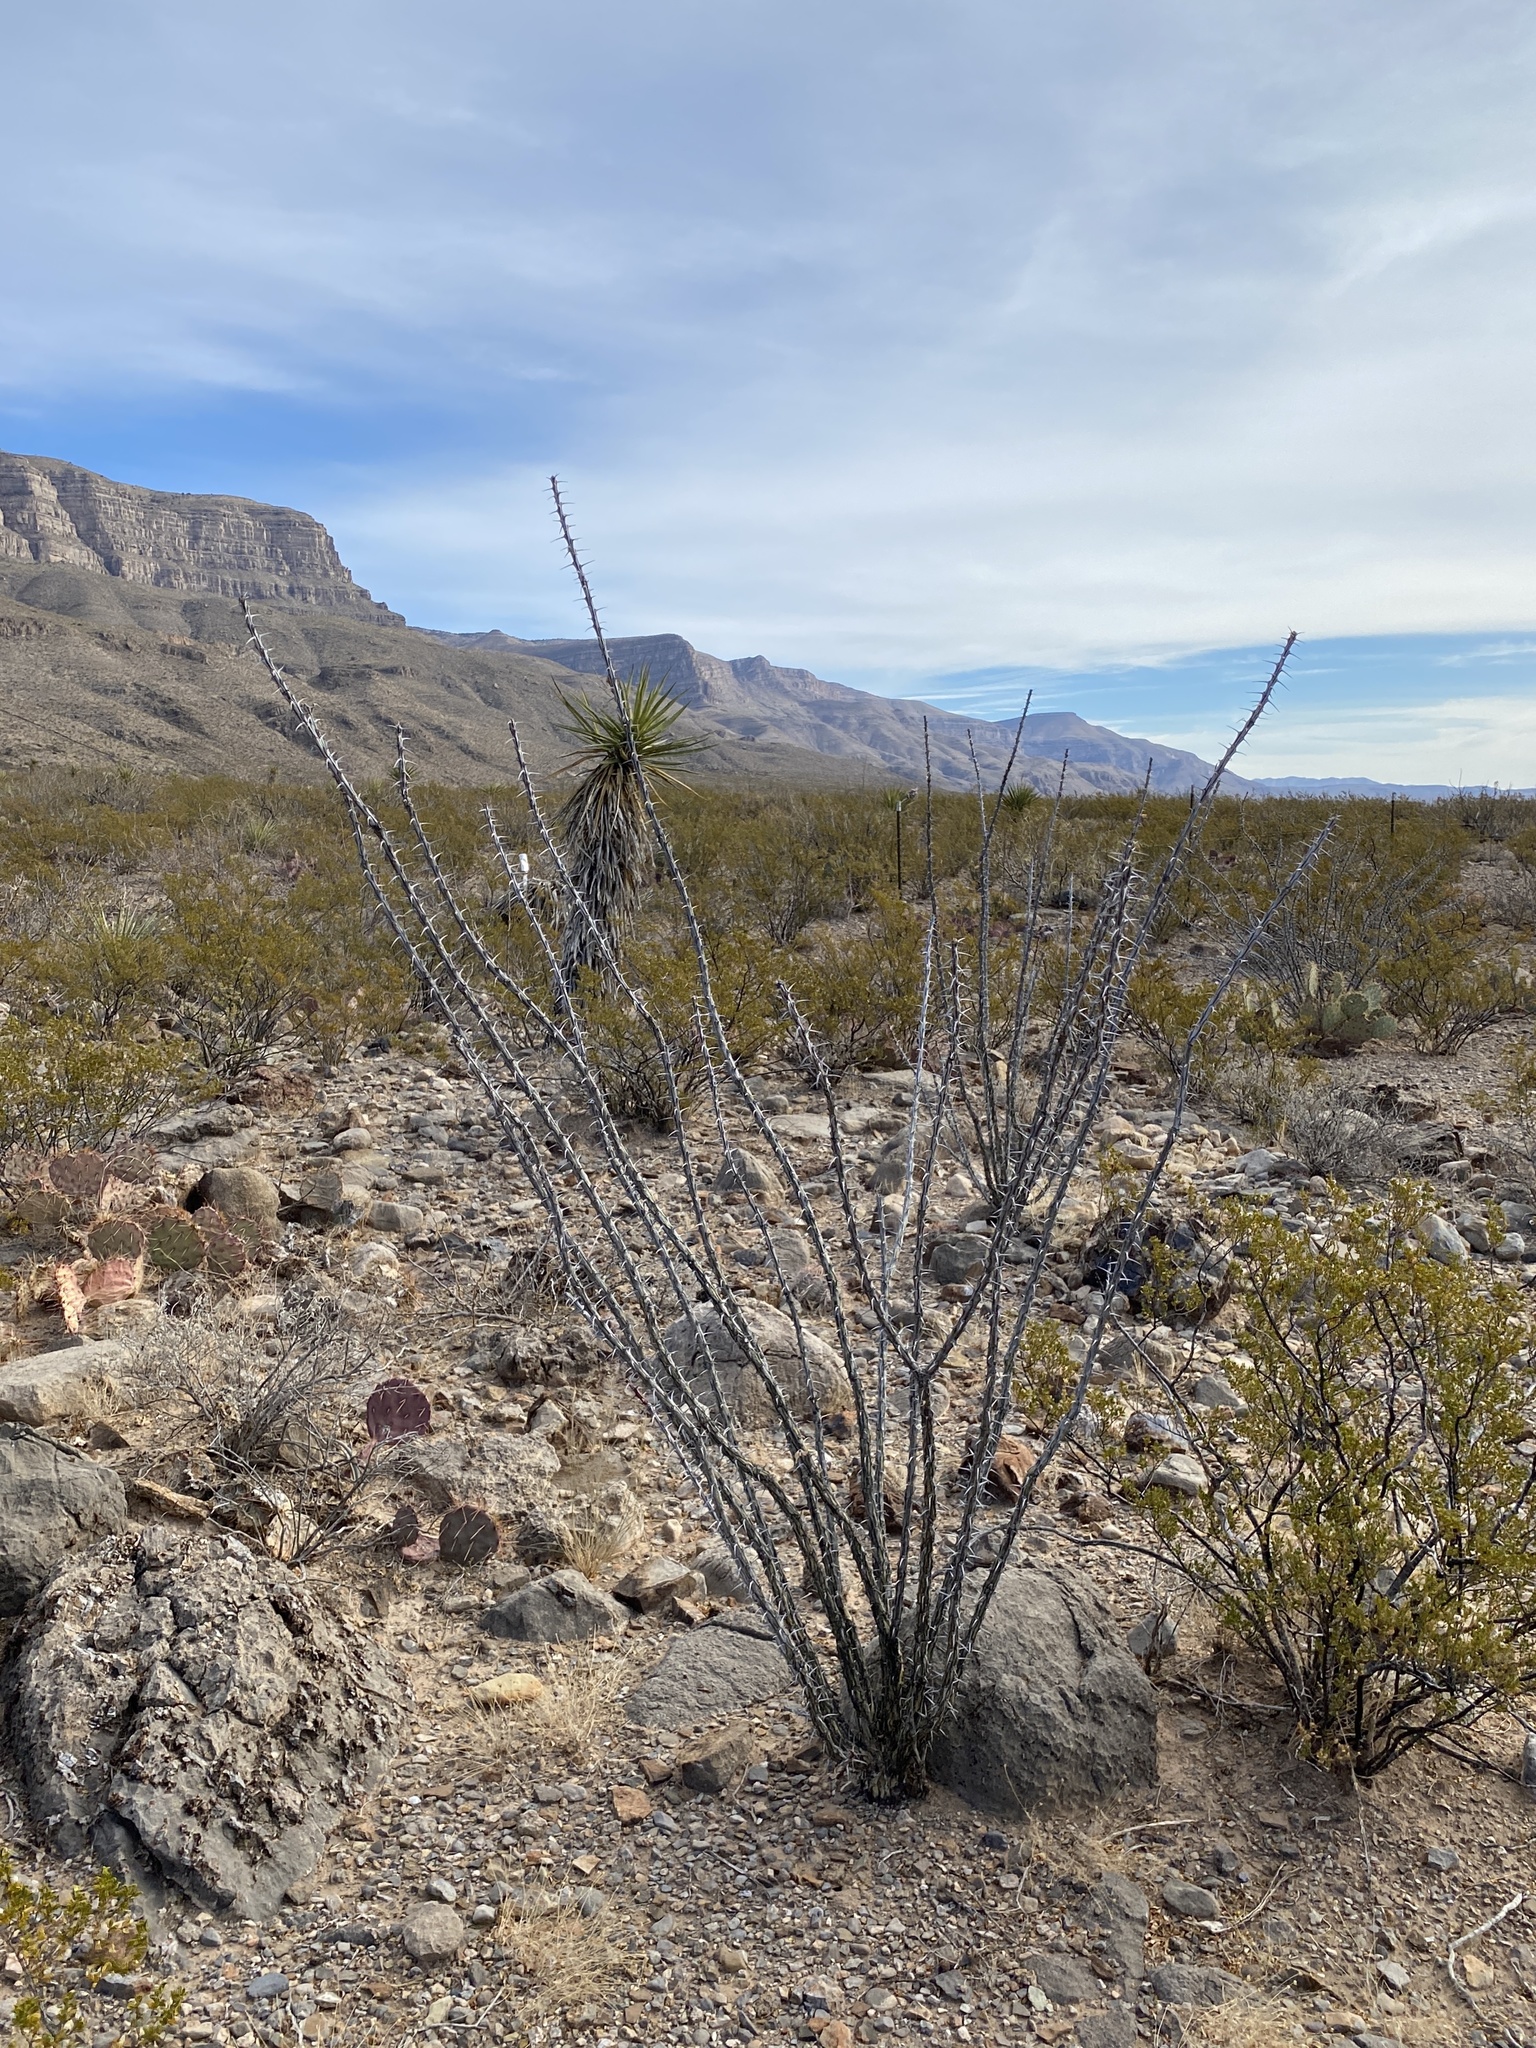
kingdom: Plantae
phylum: Tracheophyta
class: Magnoliopsida
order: Ericales
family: Fouquieriaceae
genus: Fouquieria
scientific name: Fouquieria splendens
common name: Vine-cactus
